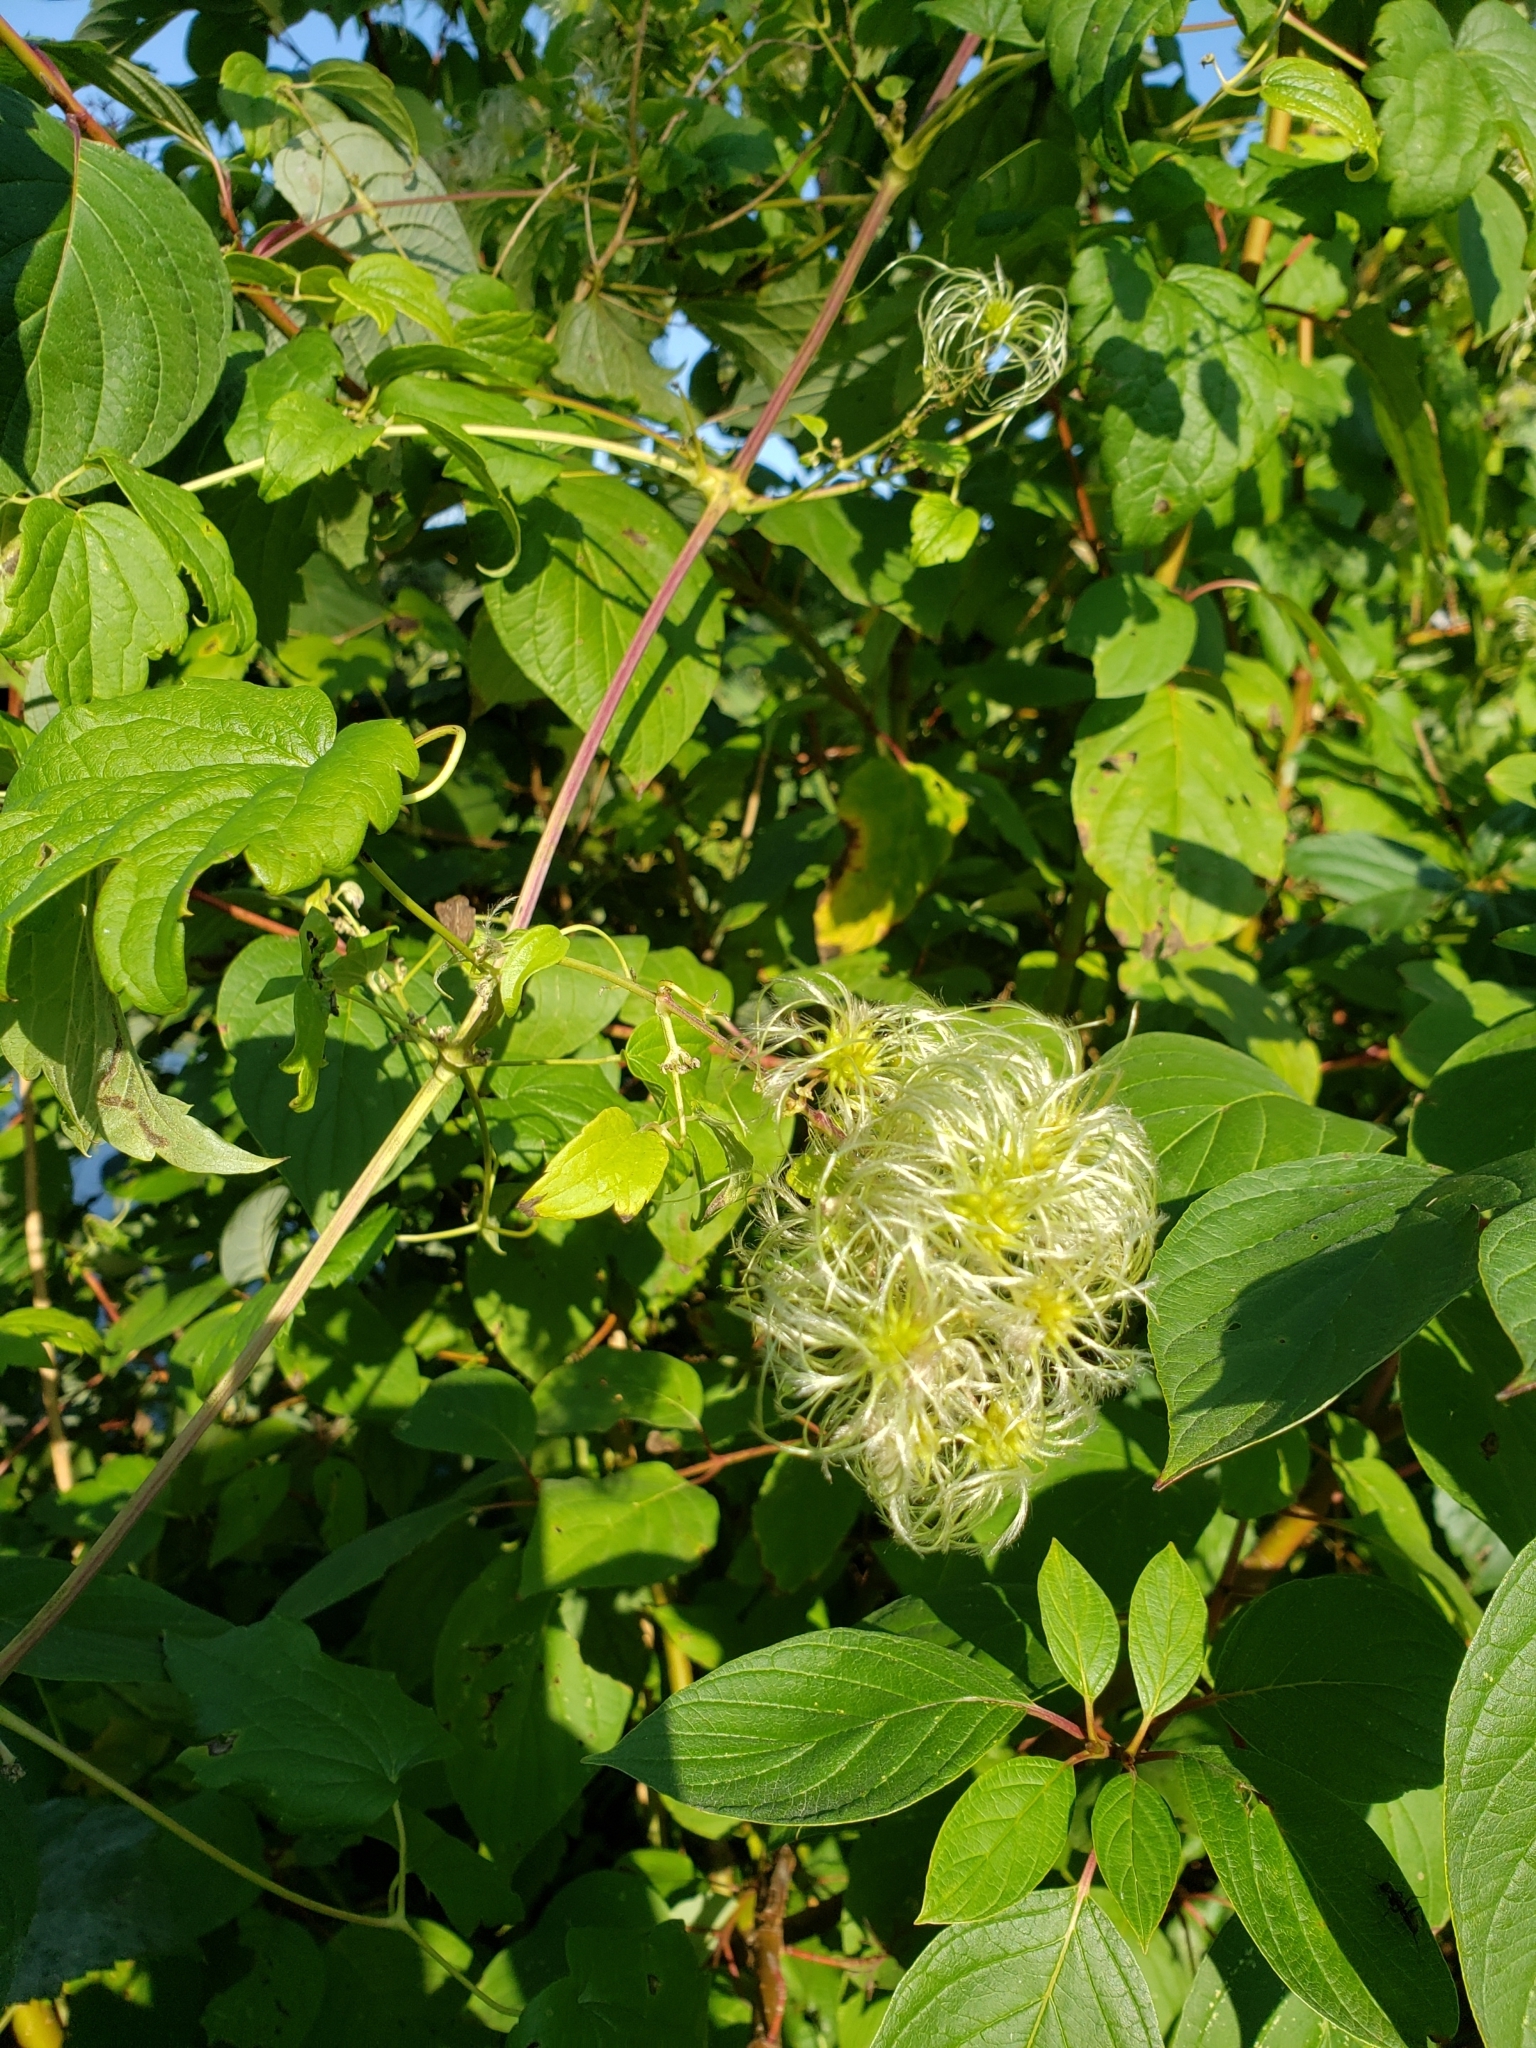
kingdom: Plantae
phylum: Tracheophyta
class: Magnoliopsida
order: Ranunculales
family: Ranunculaceae
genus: Clematis
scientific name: Clematis virginiana
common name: Virgin's-bower
